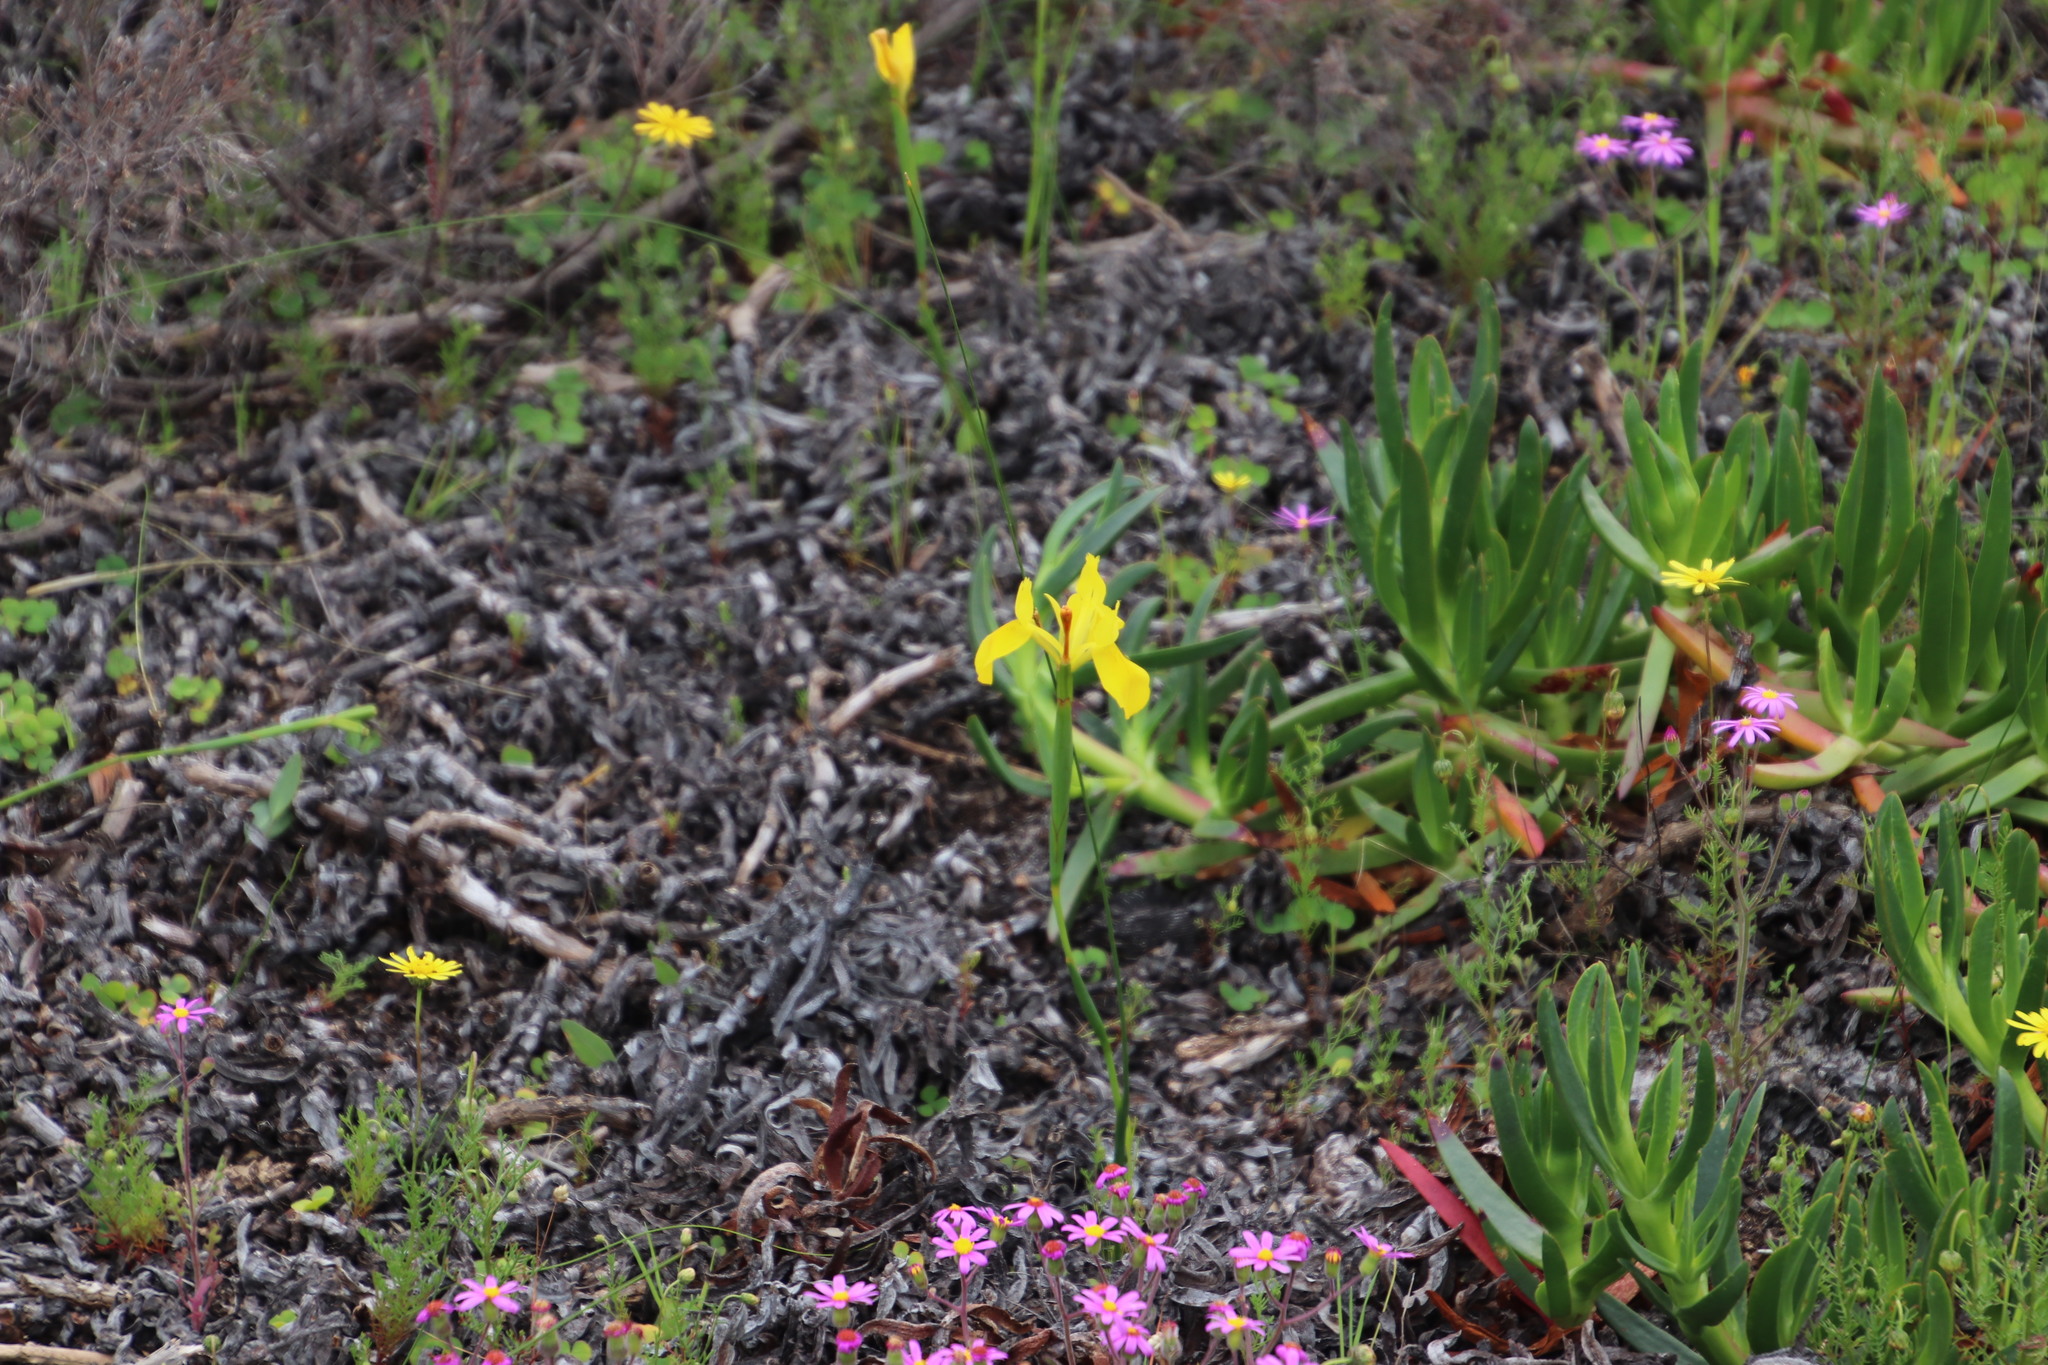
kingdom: Plantae
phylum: Tracheophyta
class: Liliopsida
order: Asparagales
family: Iridaceae
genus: Moraea
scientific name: Moraea neglecta
